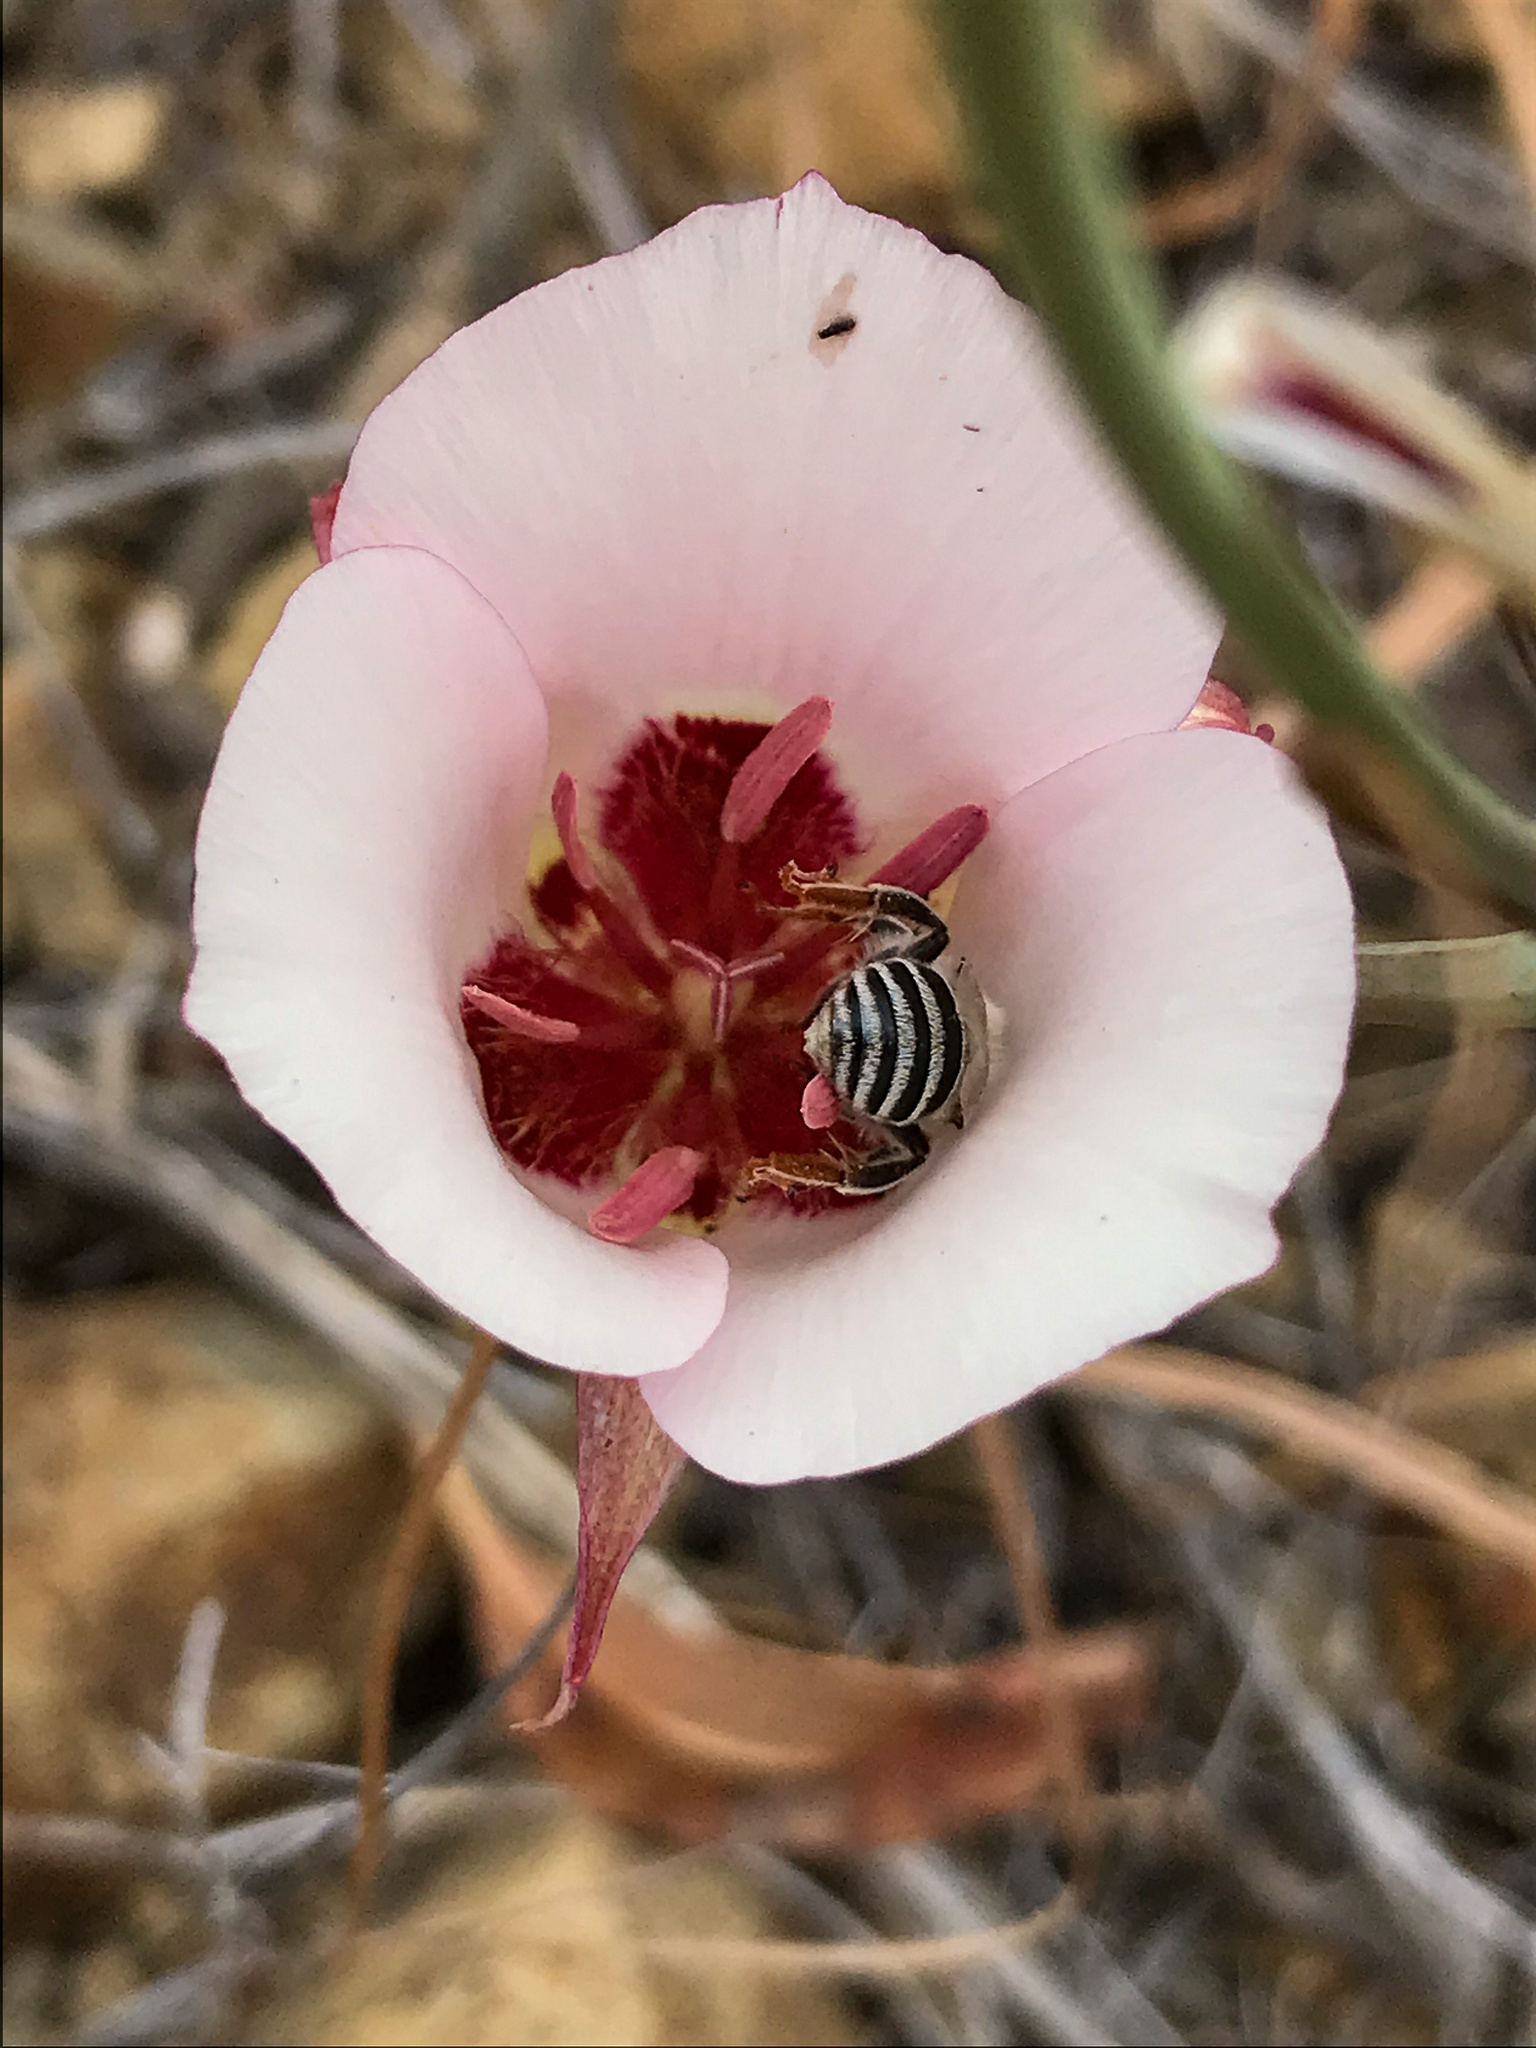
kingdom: Animalia
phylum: Arthropoda
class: Insecta
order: Hymenoptera
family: Apidae
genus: Anthophora
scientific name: Anthophora urbana
